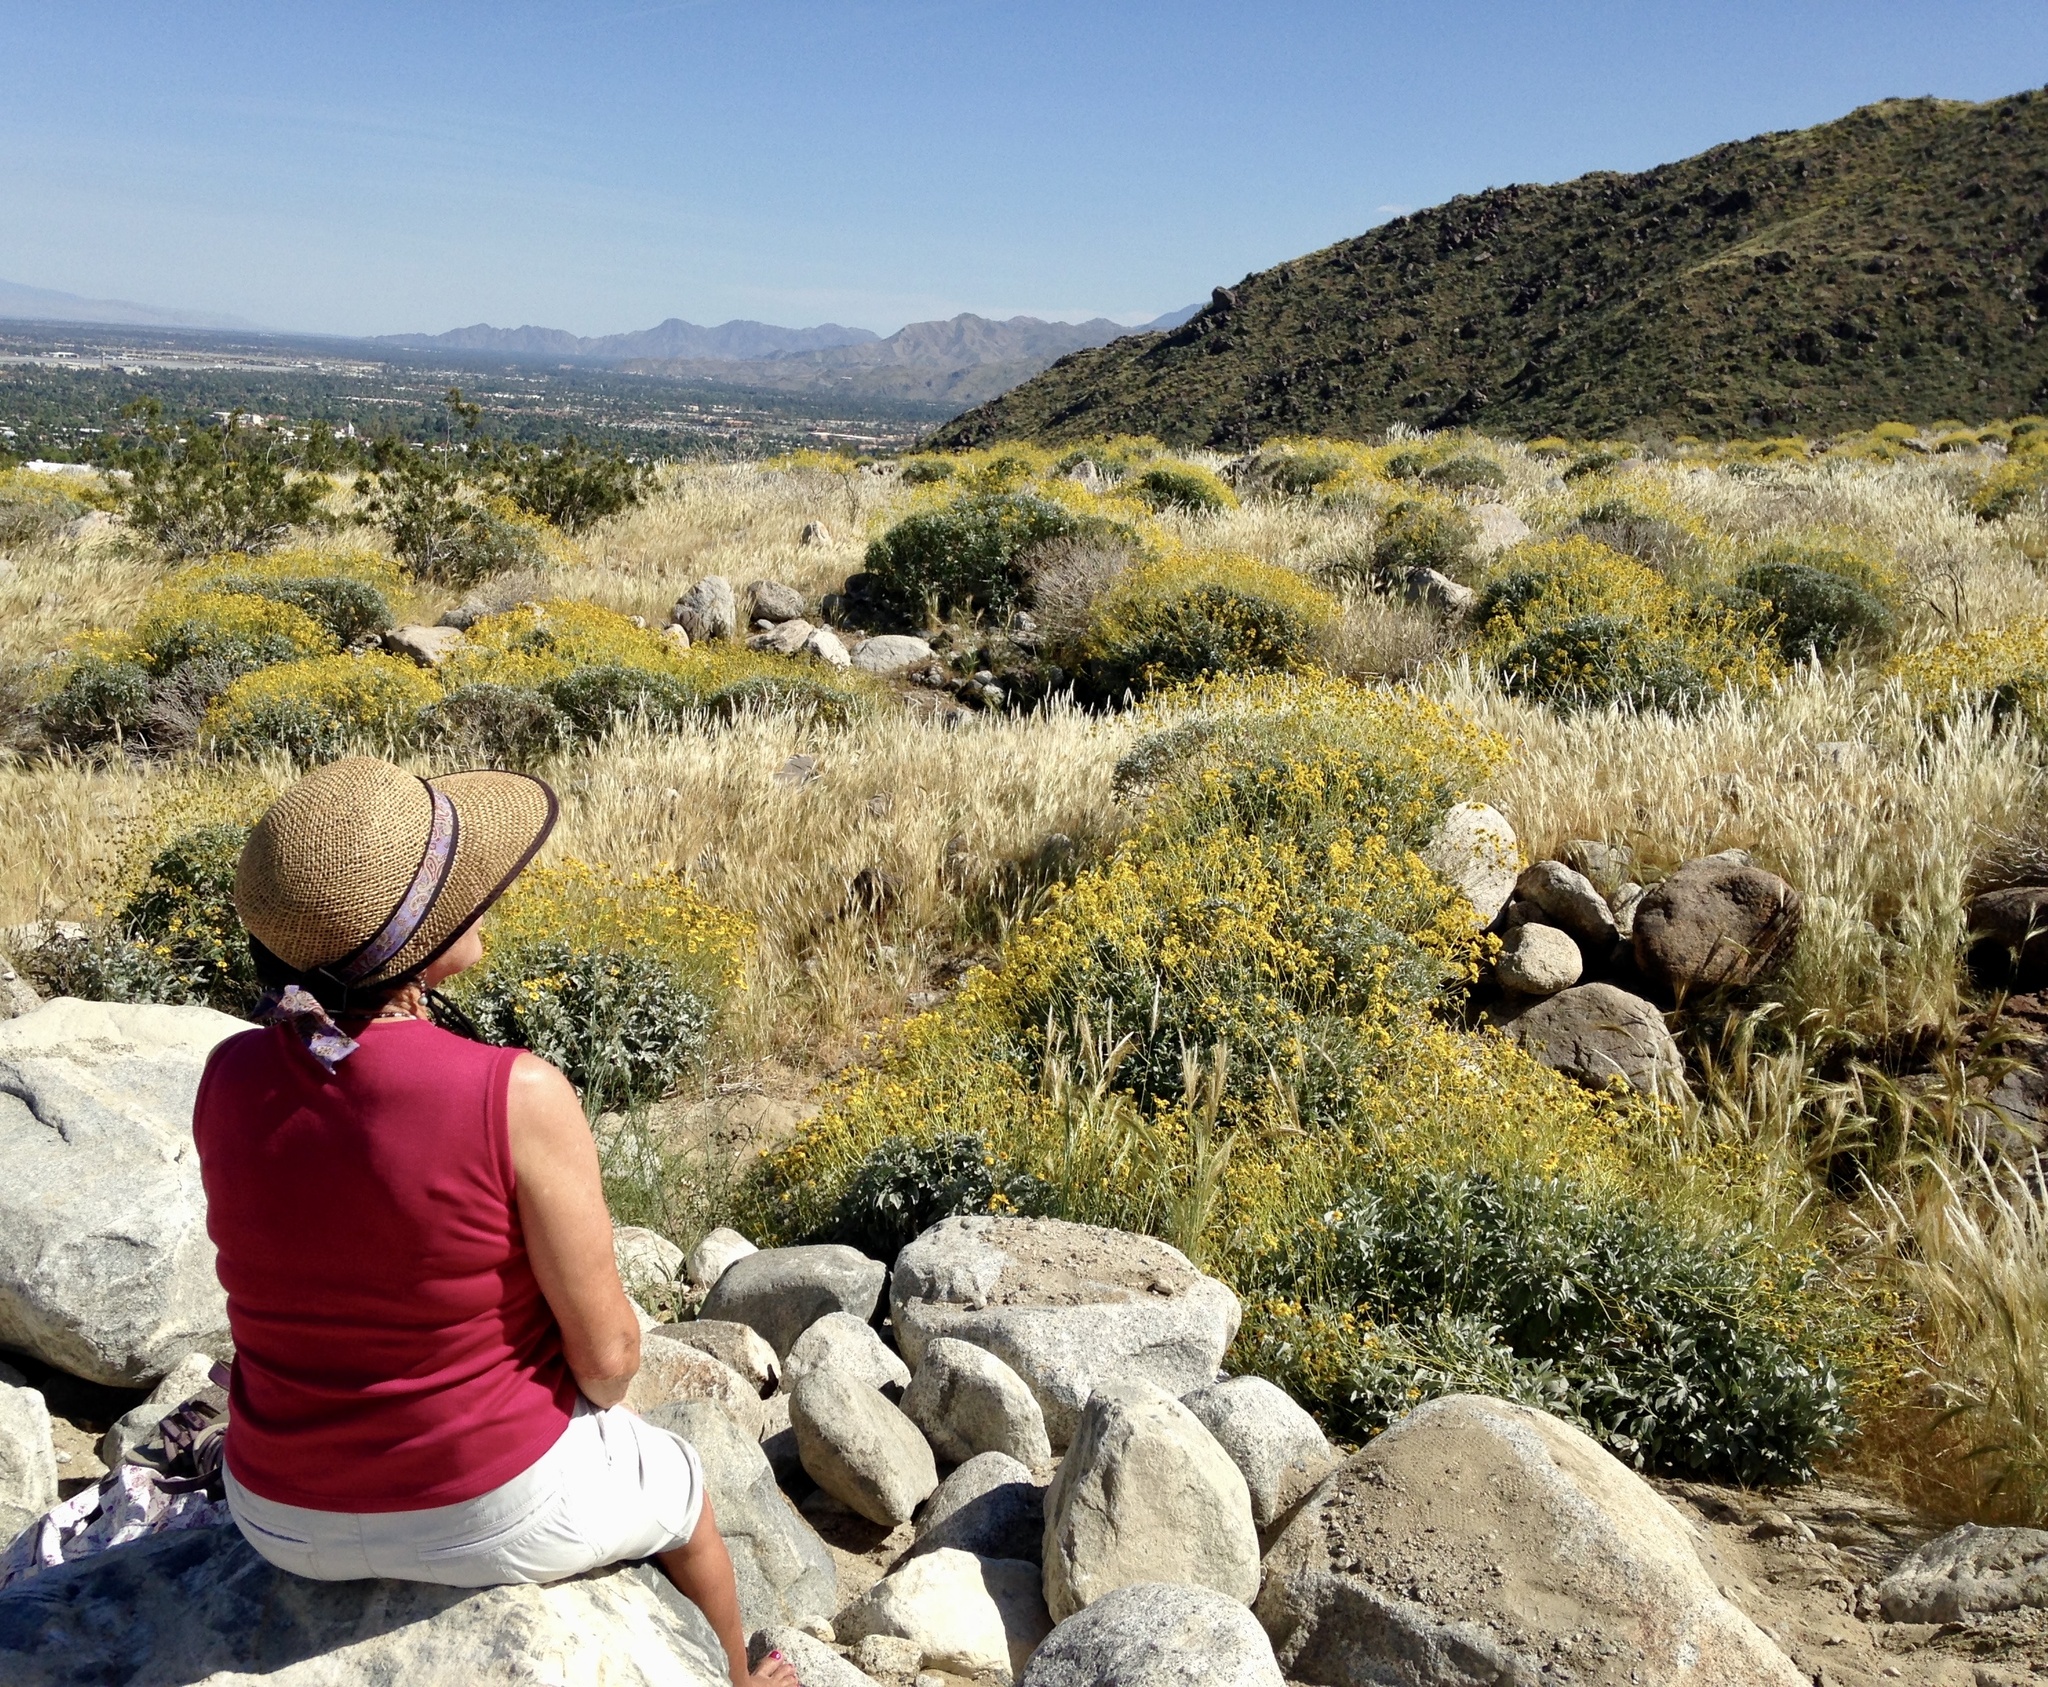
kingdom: Plantae
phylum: Tracheophyta
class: Magnoliopsida
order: Asterales
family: Asteraceae
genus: Encelia
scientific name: Encelia farinosa
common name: Brittlebush
